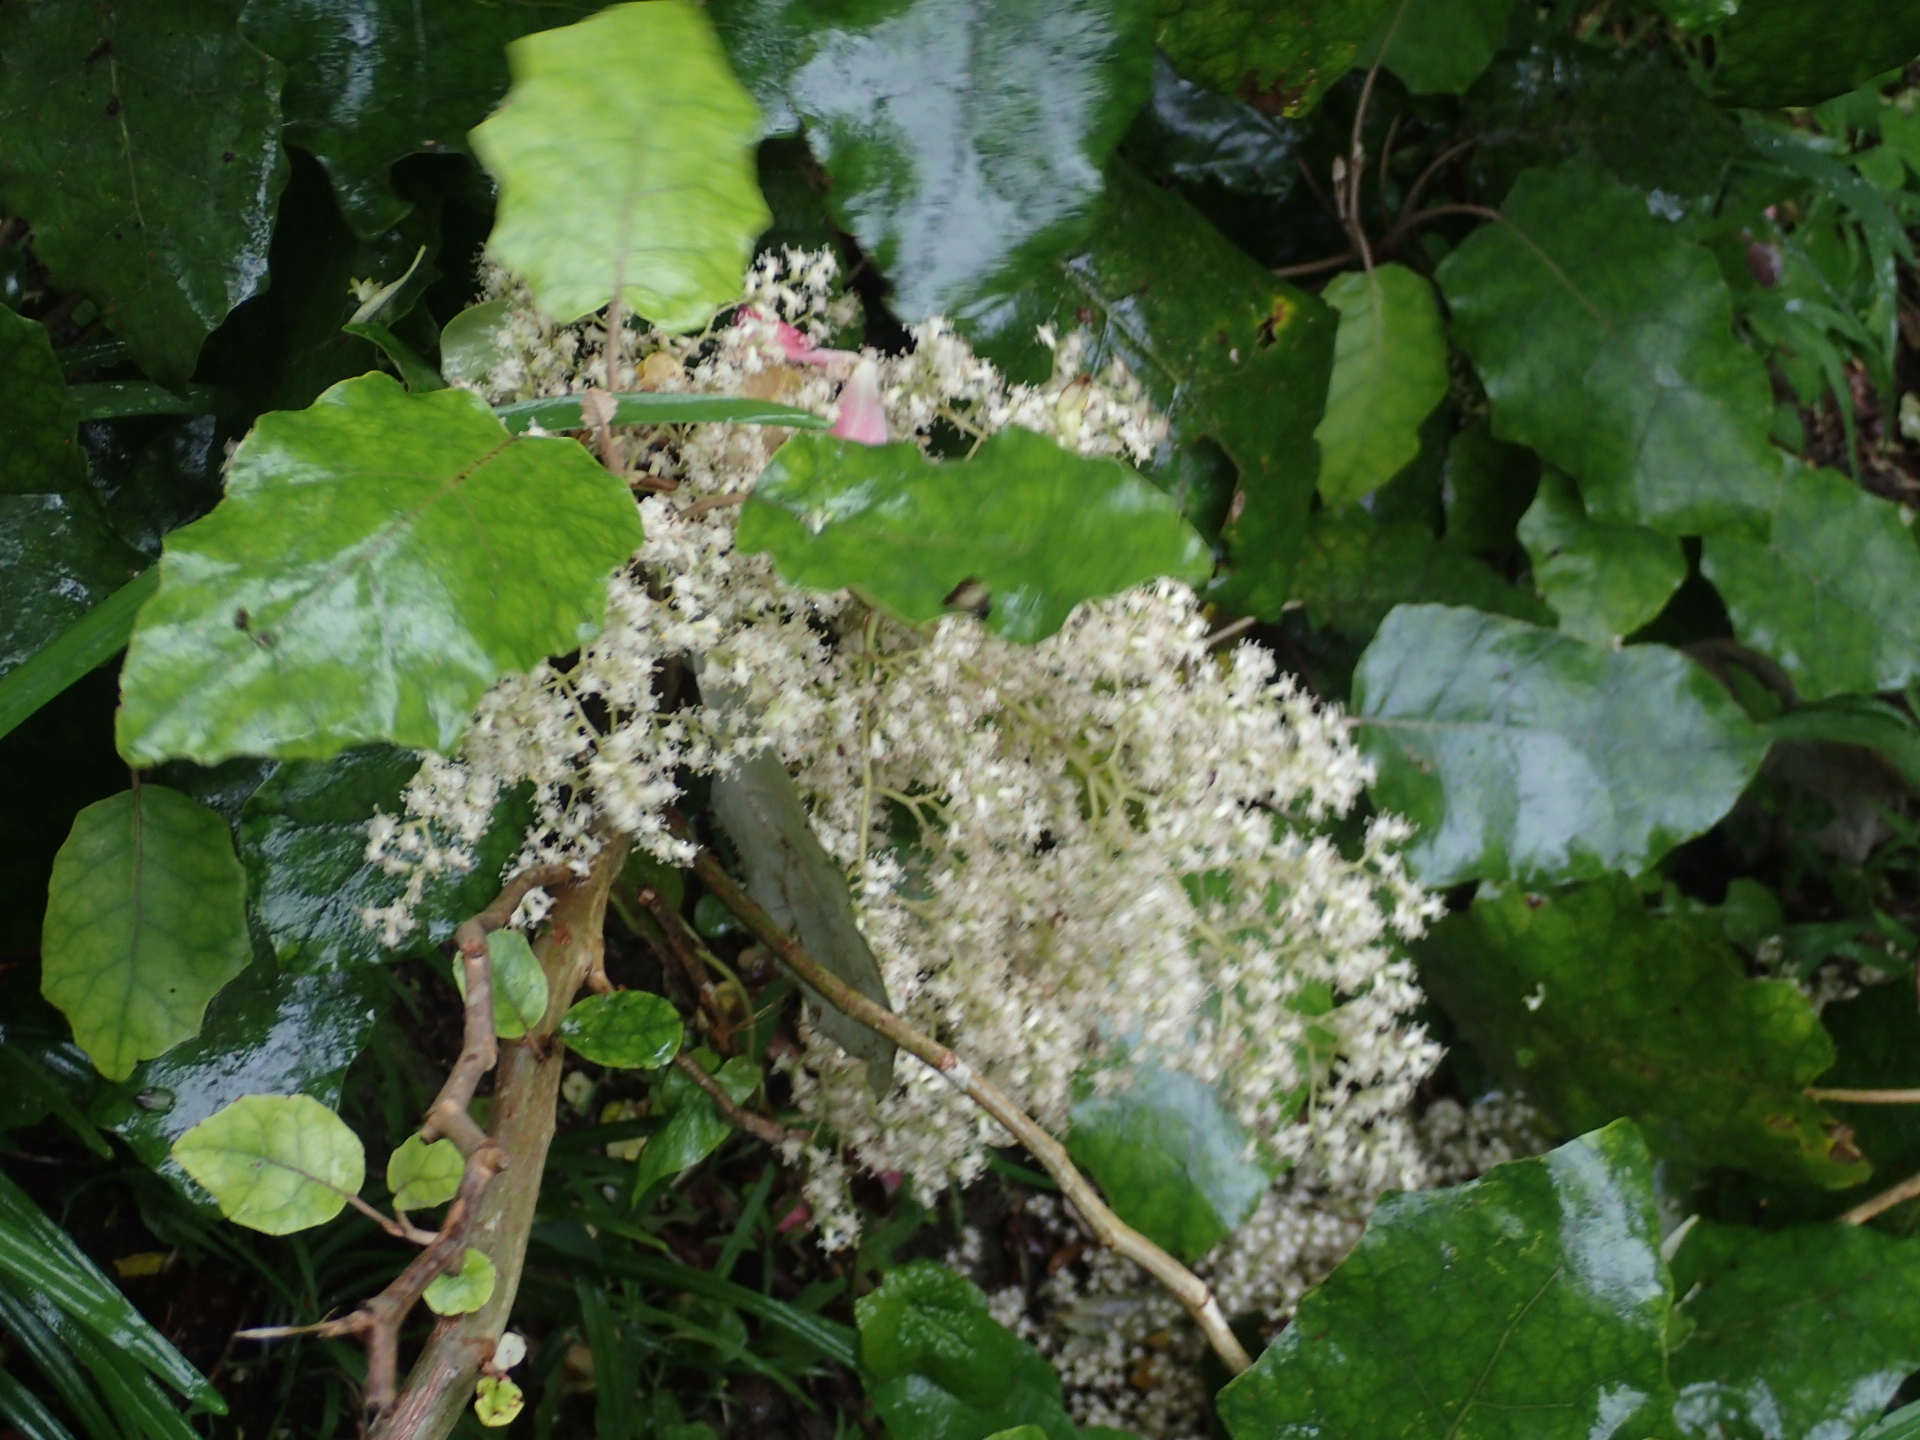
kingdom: Plantae
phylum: Tracheophyta
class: Magnoliopsida
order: Asterales
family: Asteraceae
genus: Brachyglottis
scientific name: Brachyglottis repanda
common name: Hedge ragwort
